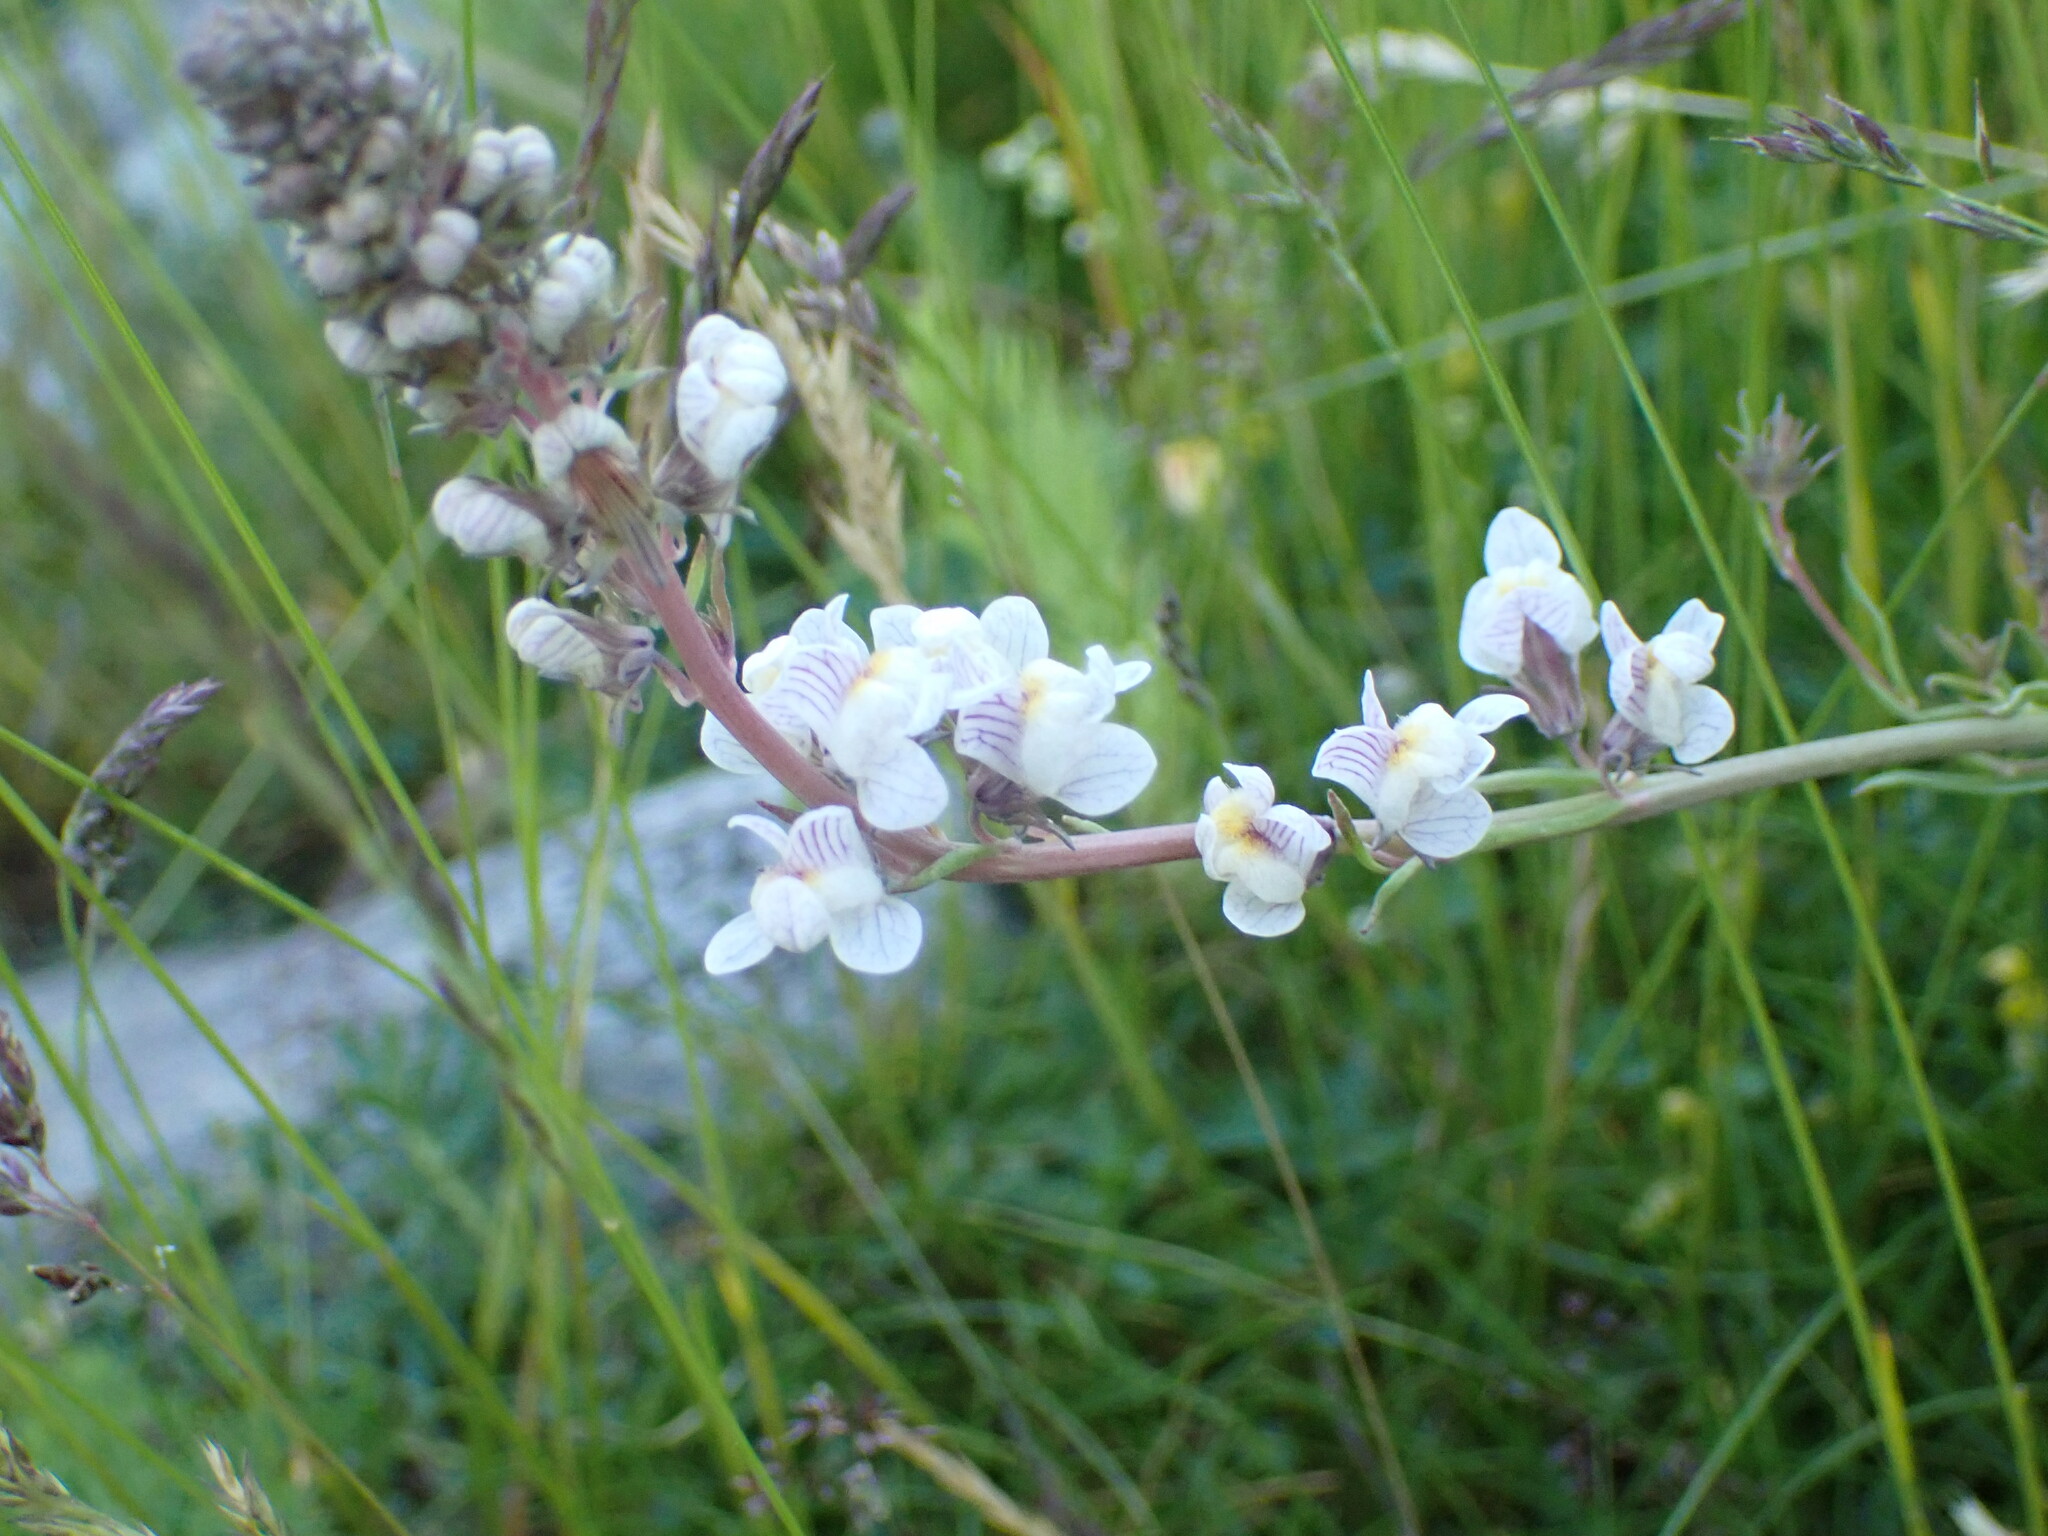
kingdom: Plantae
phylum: Tracheophyta
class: Magnoliopsida
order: Lamiales
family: Plantaginaceae
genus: Linaria
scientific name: Linaria repens
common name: Pale toadflax
